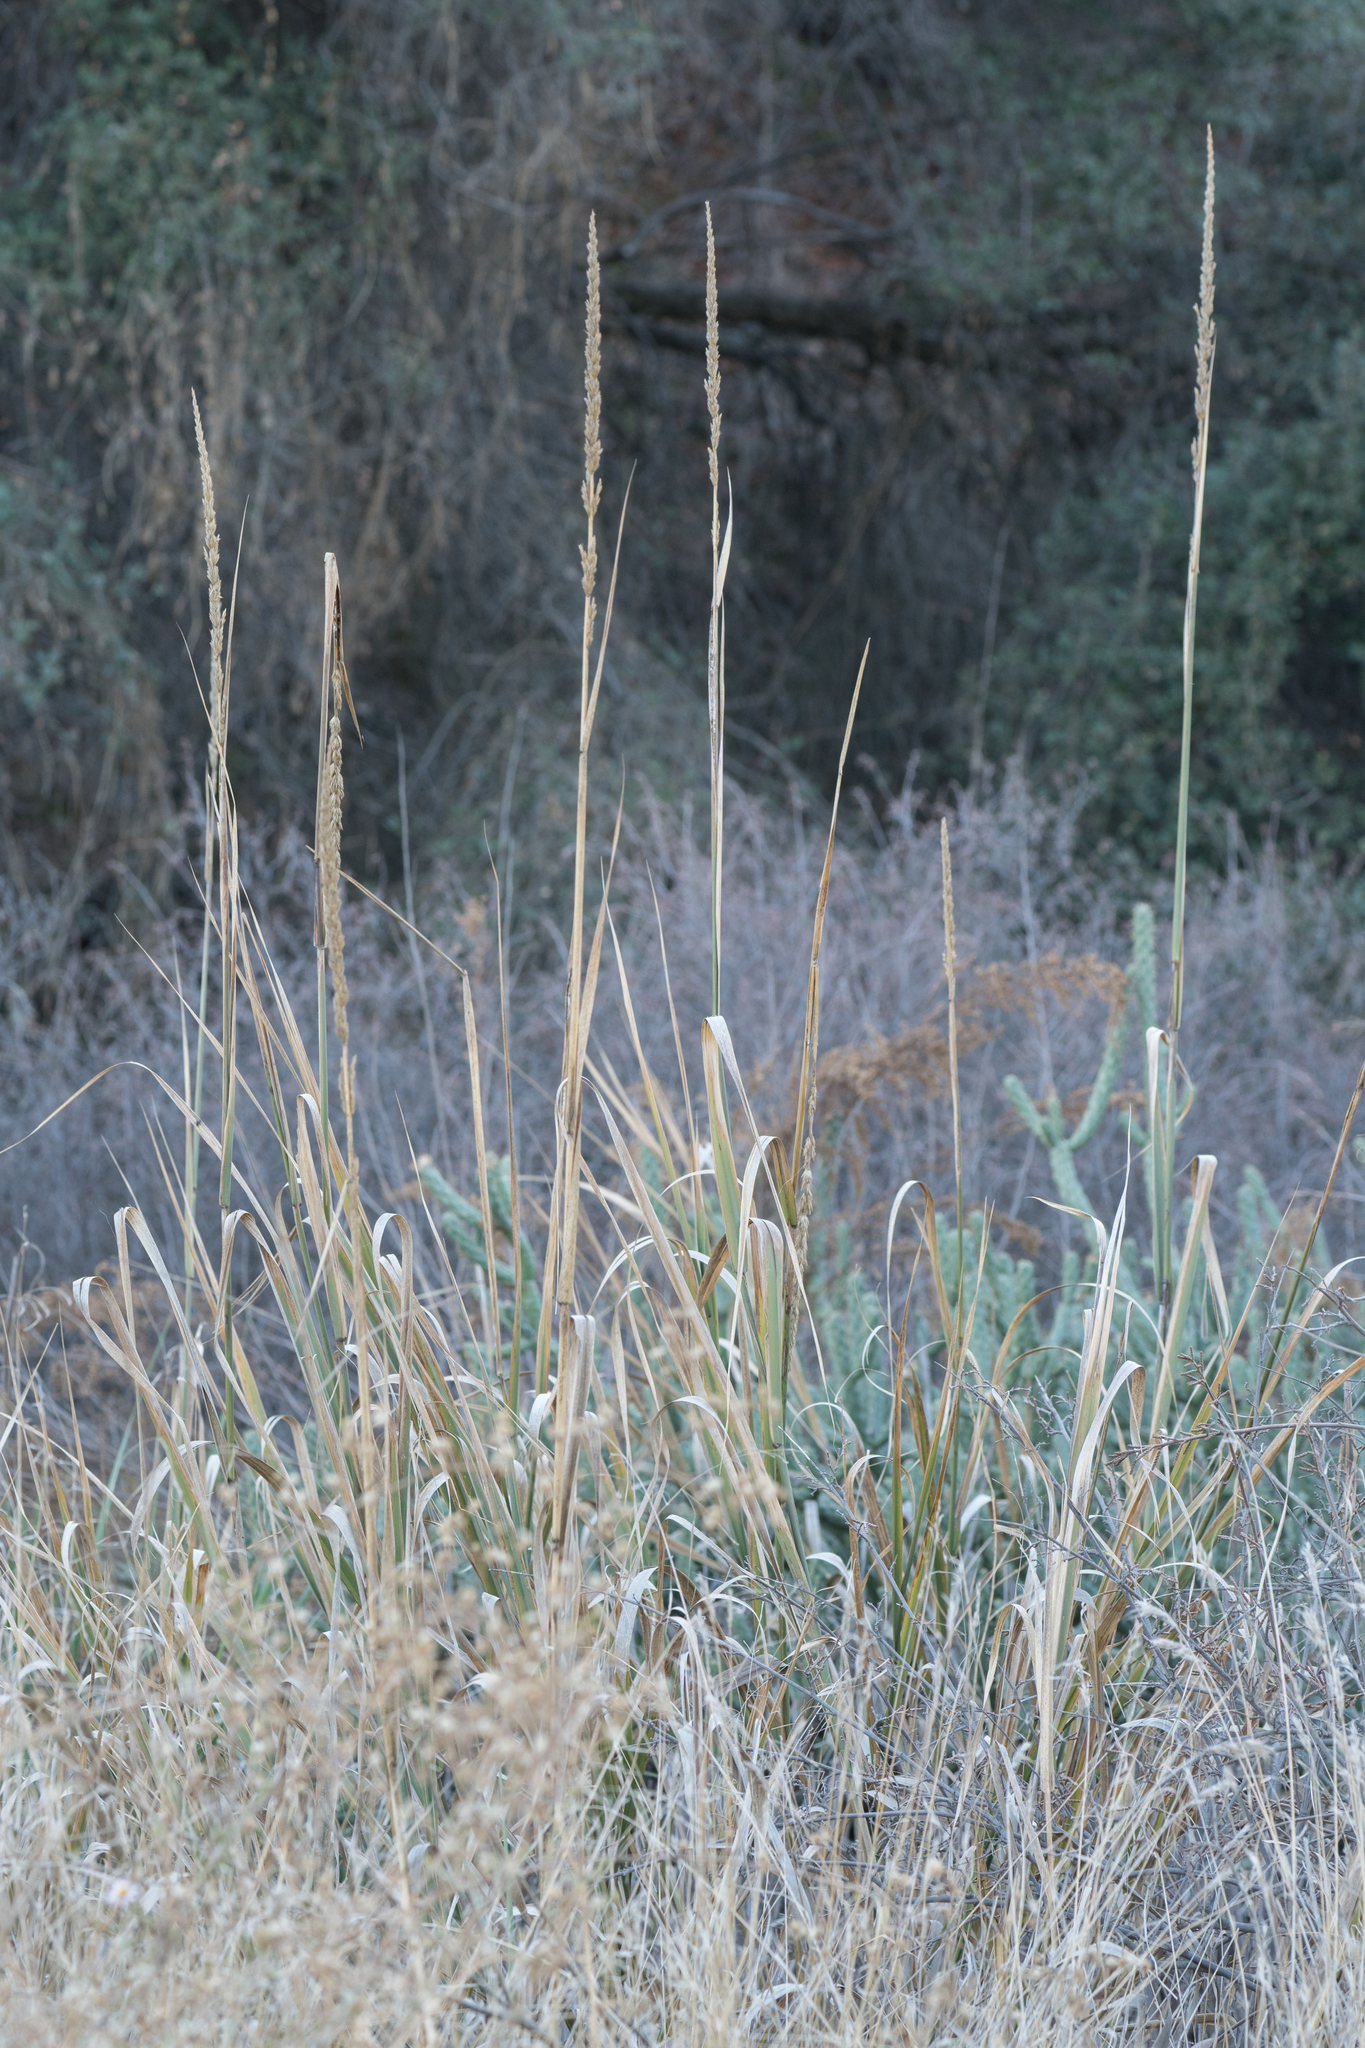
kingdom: Plantae
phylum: Tracheophyta
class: Liliopsida
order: Poales
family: Poaceae
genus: Leymus
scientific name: Leymus condensatus
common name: Giant wild rye
